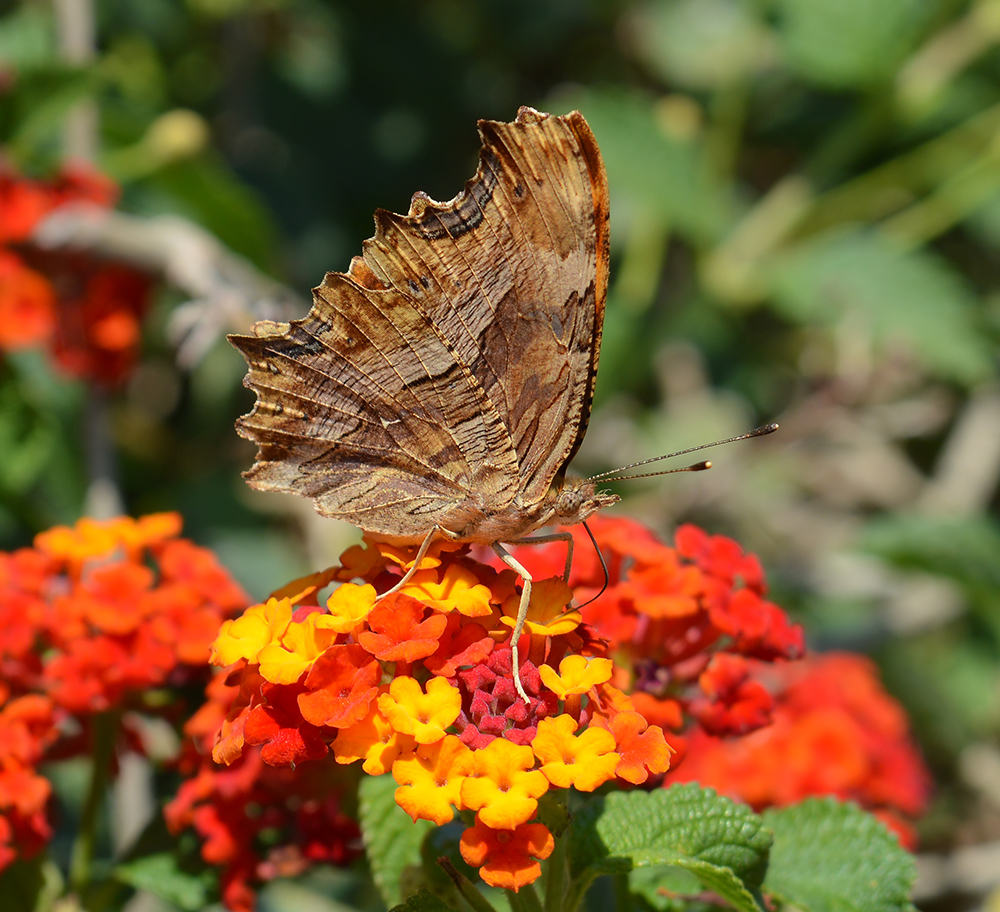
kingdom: Animalia
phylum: Arthropoda
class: Insecta
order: Lepidoptera
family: Nymphalidae
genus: Polygonia
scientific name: Polygonia egea
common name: Southern comma
